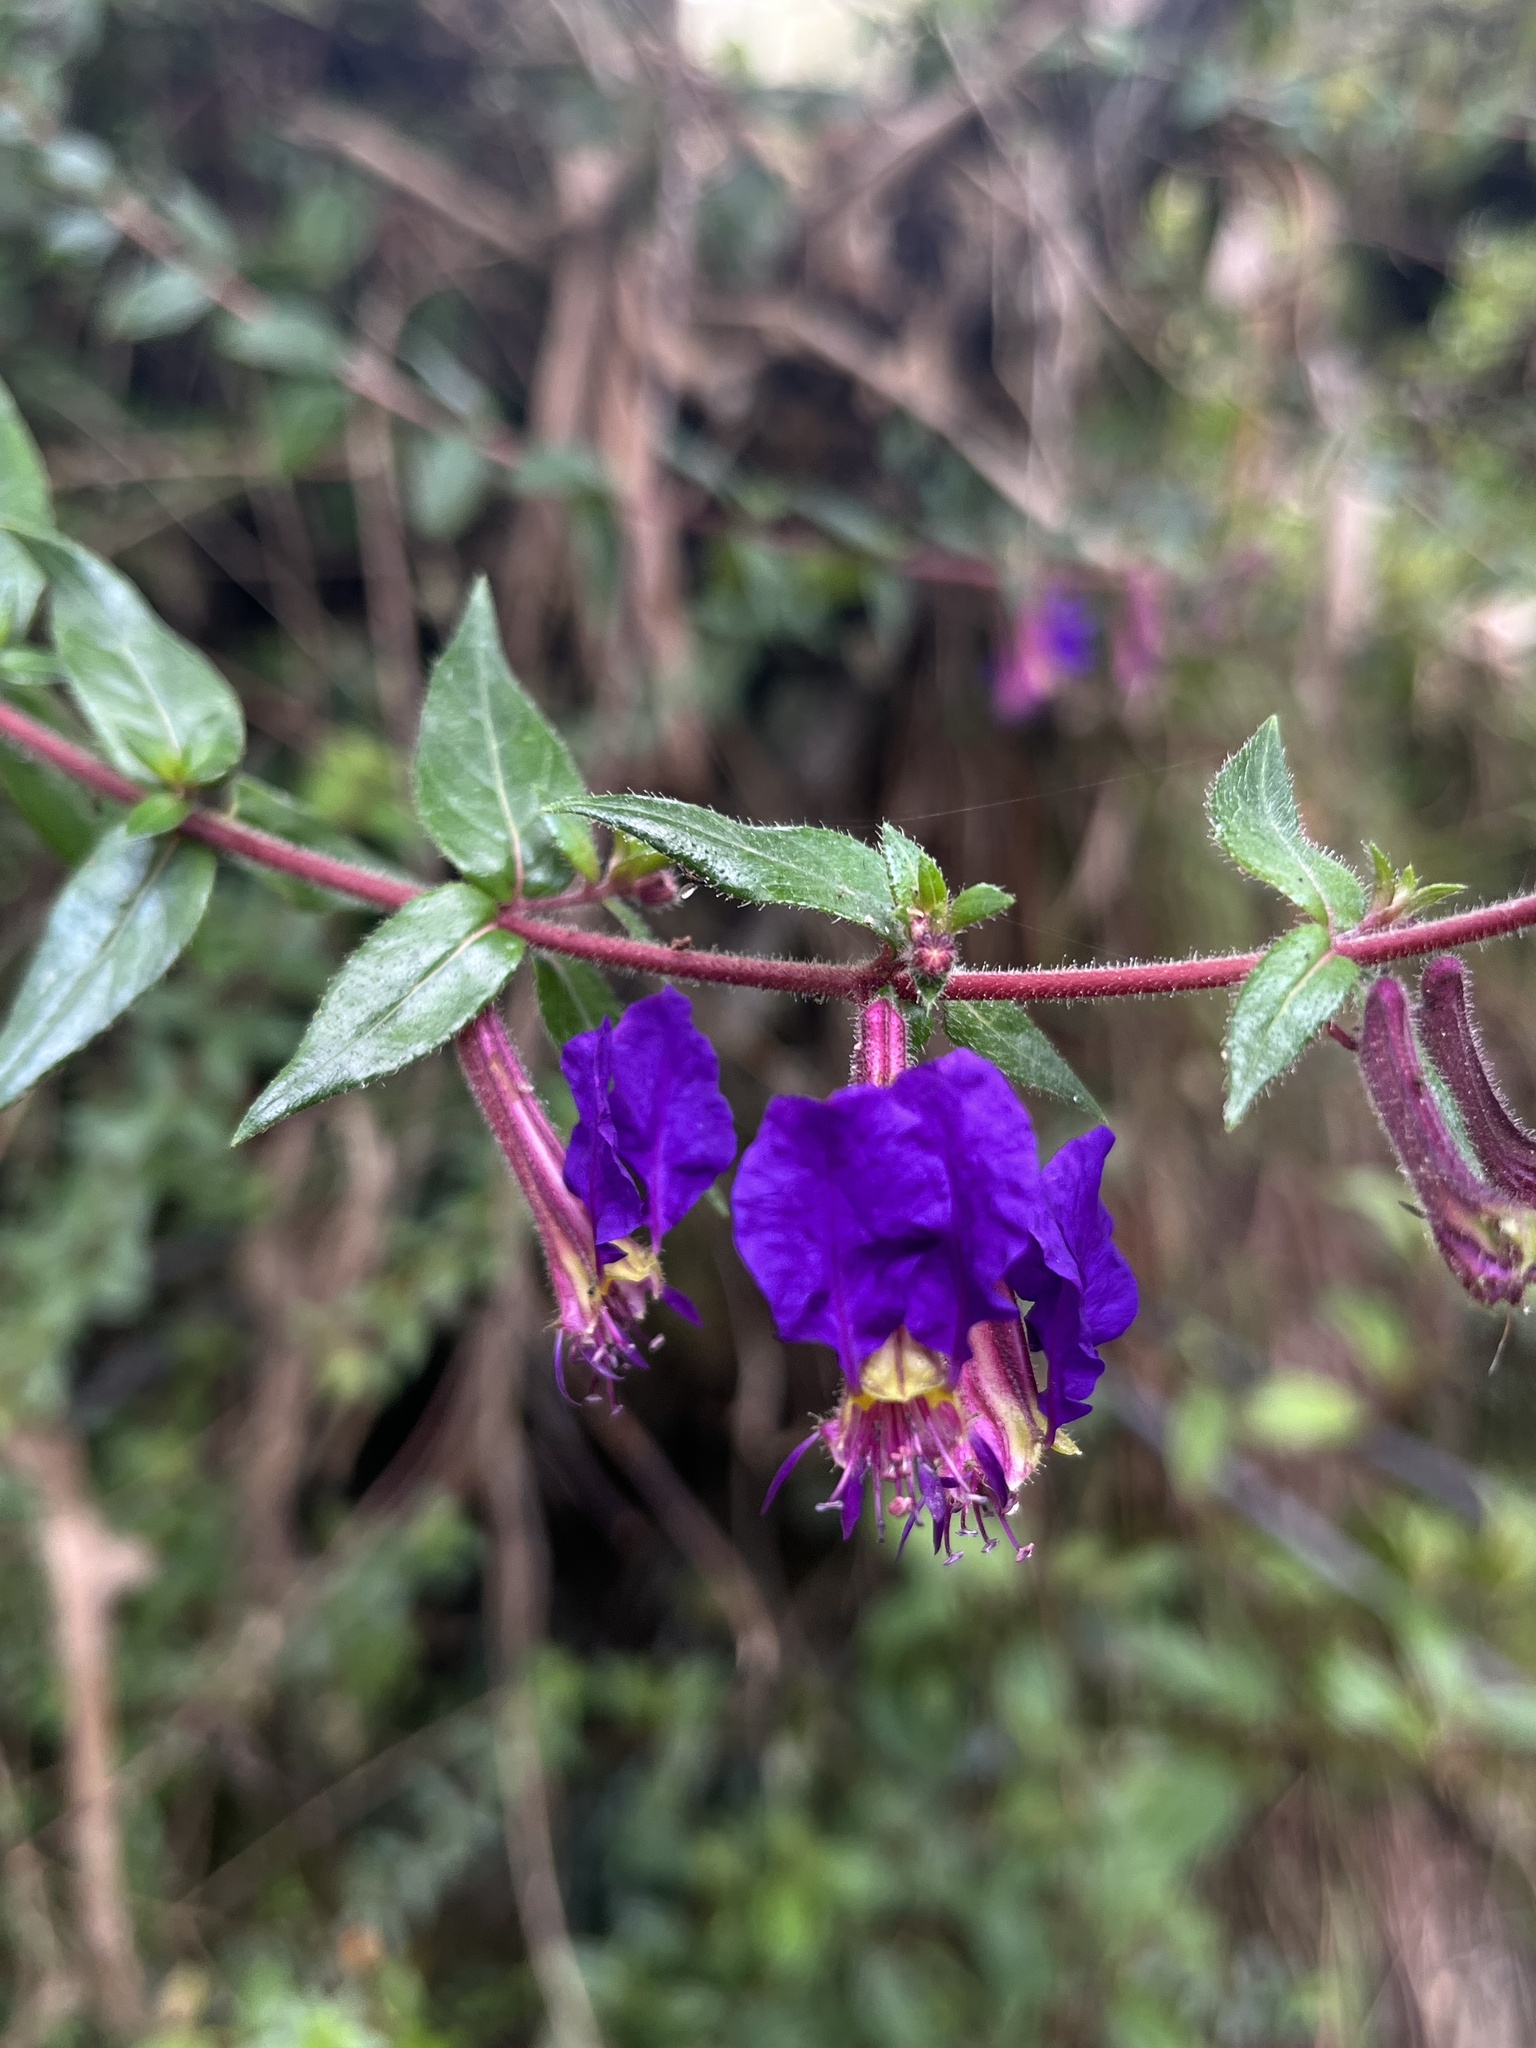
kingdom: Plantae
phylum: Tracheophyta
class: Magnoliopsida
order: Myrtales
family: Lythraceae
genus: Cuphea
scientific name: Cuphea dipetala
